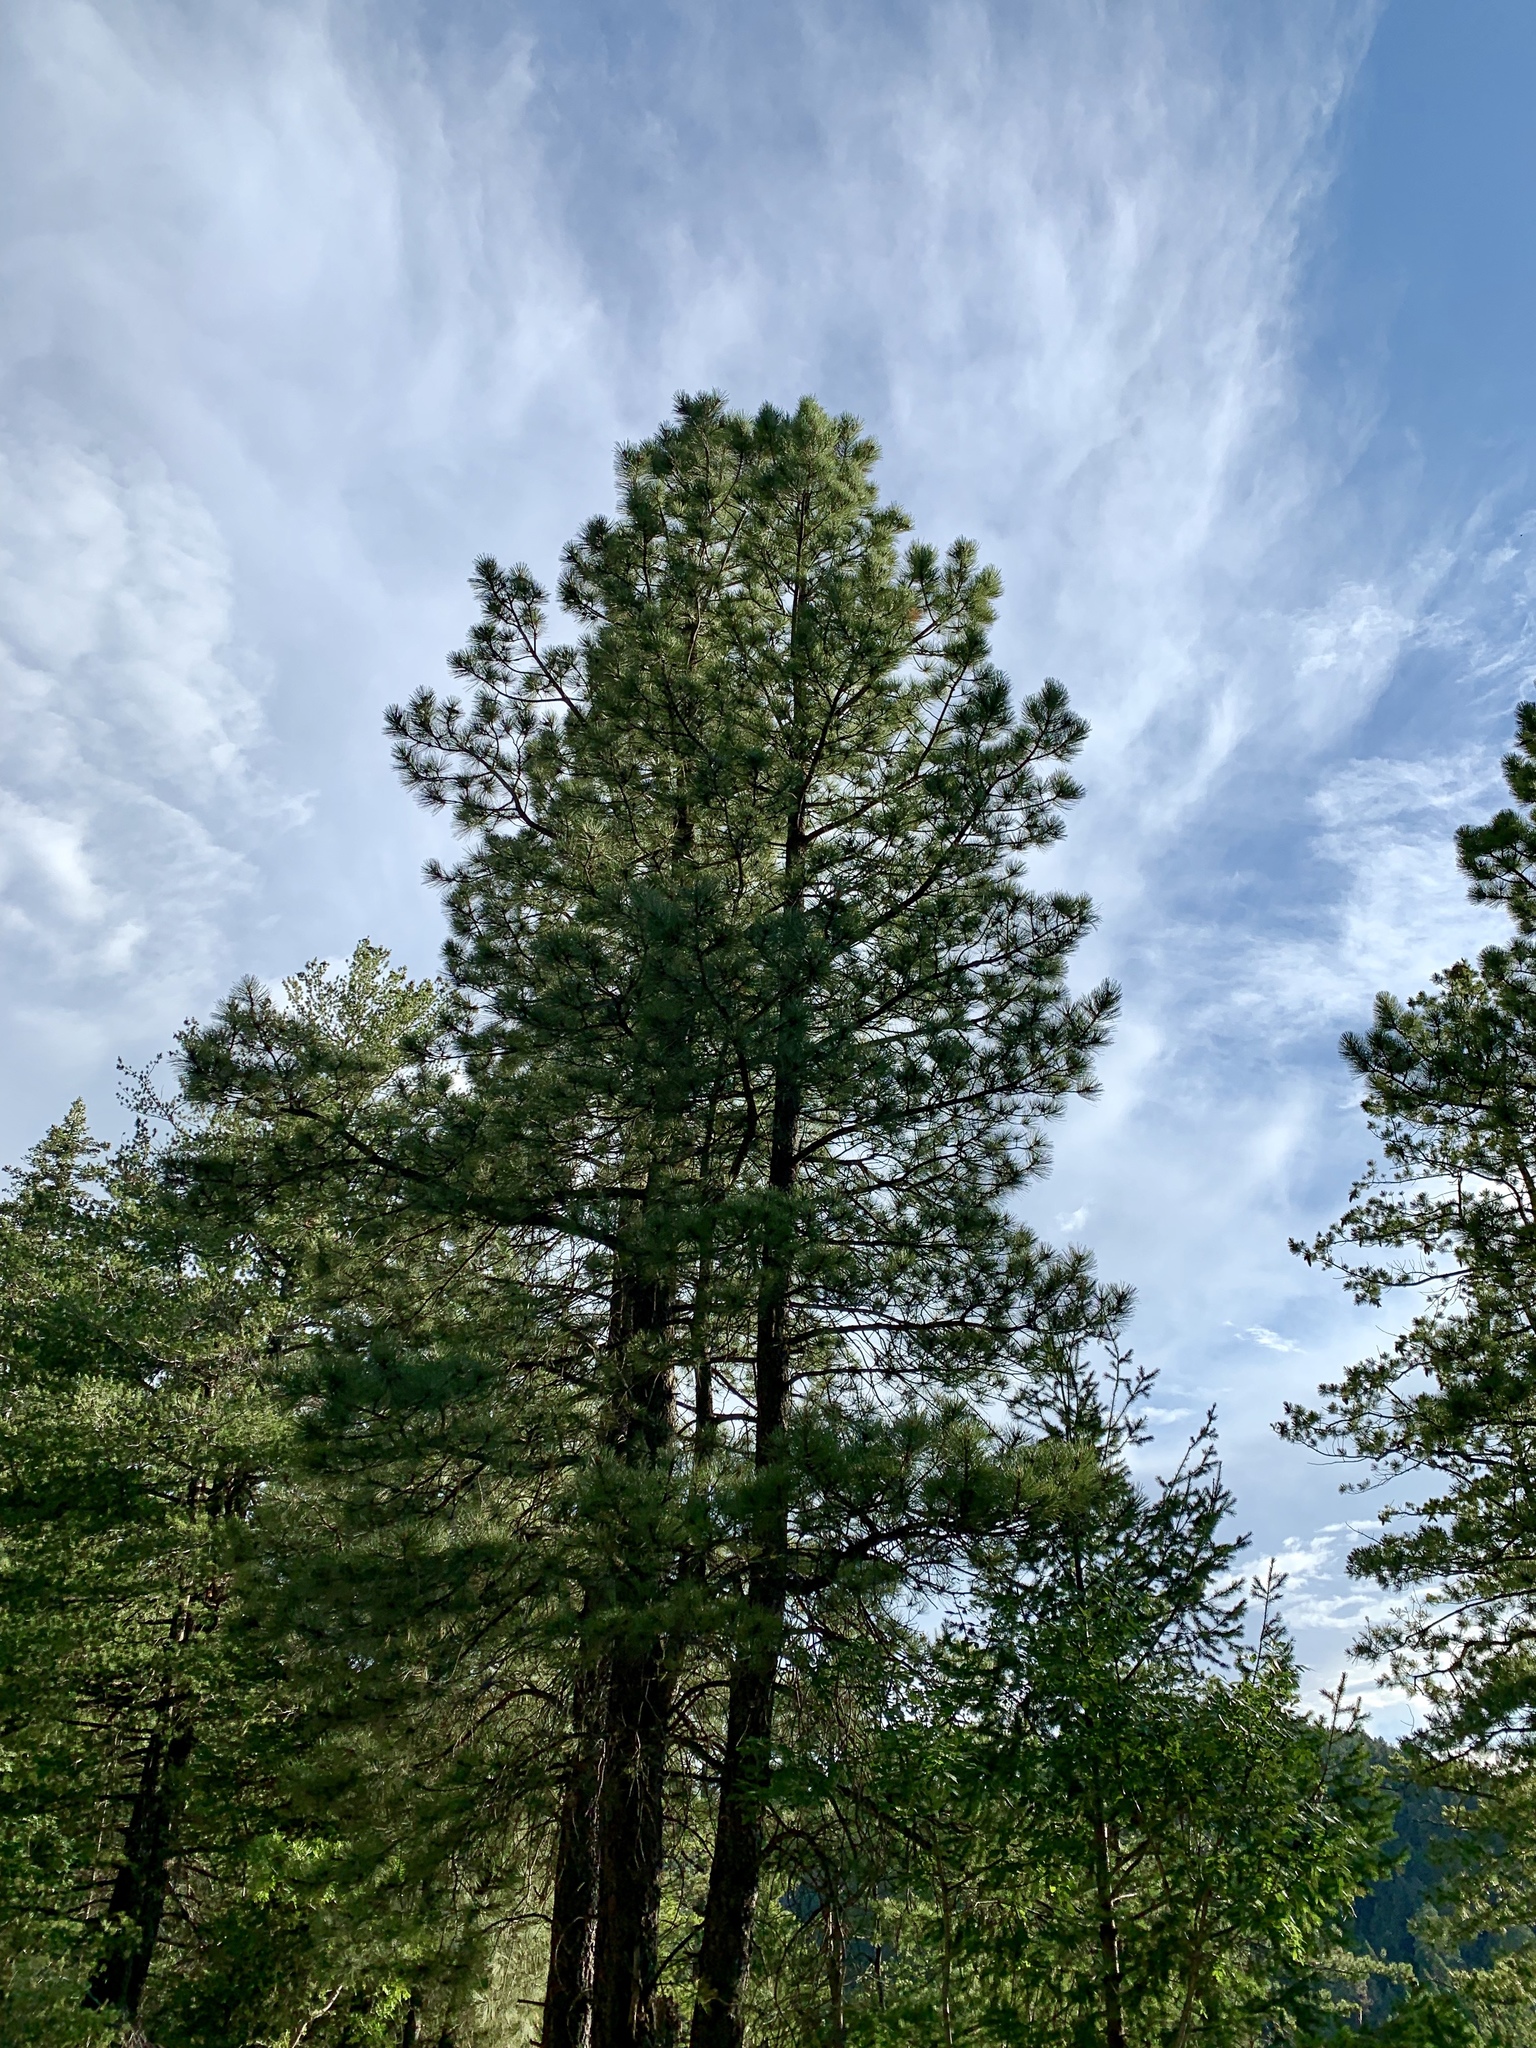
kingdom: Plantae
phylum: Tracheophyta
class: Pinopsida
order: Pinales
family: Pinaceae
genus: Pinus
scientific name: Pinus ponderosa
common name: Western yellow-pine
